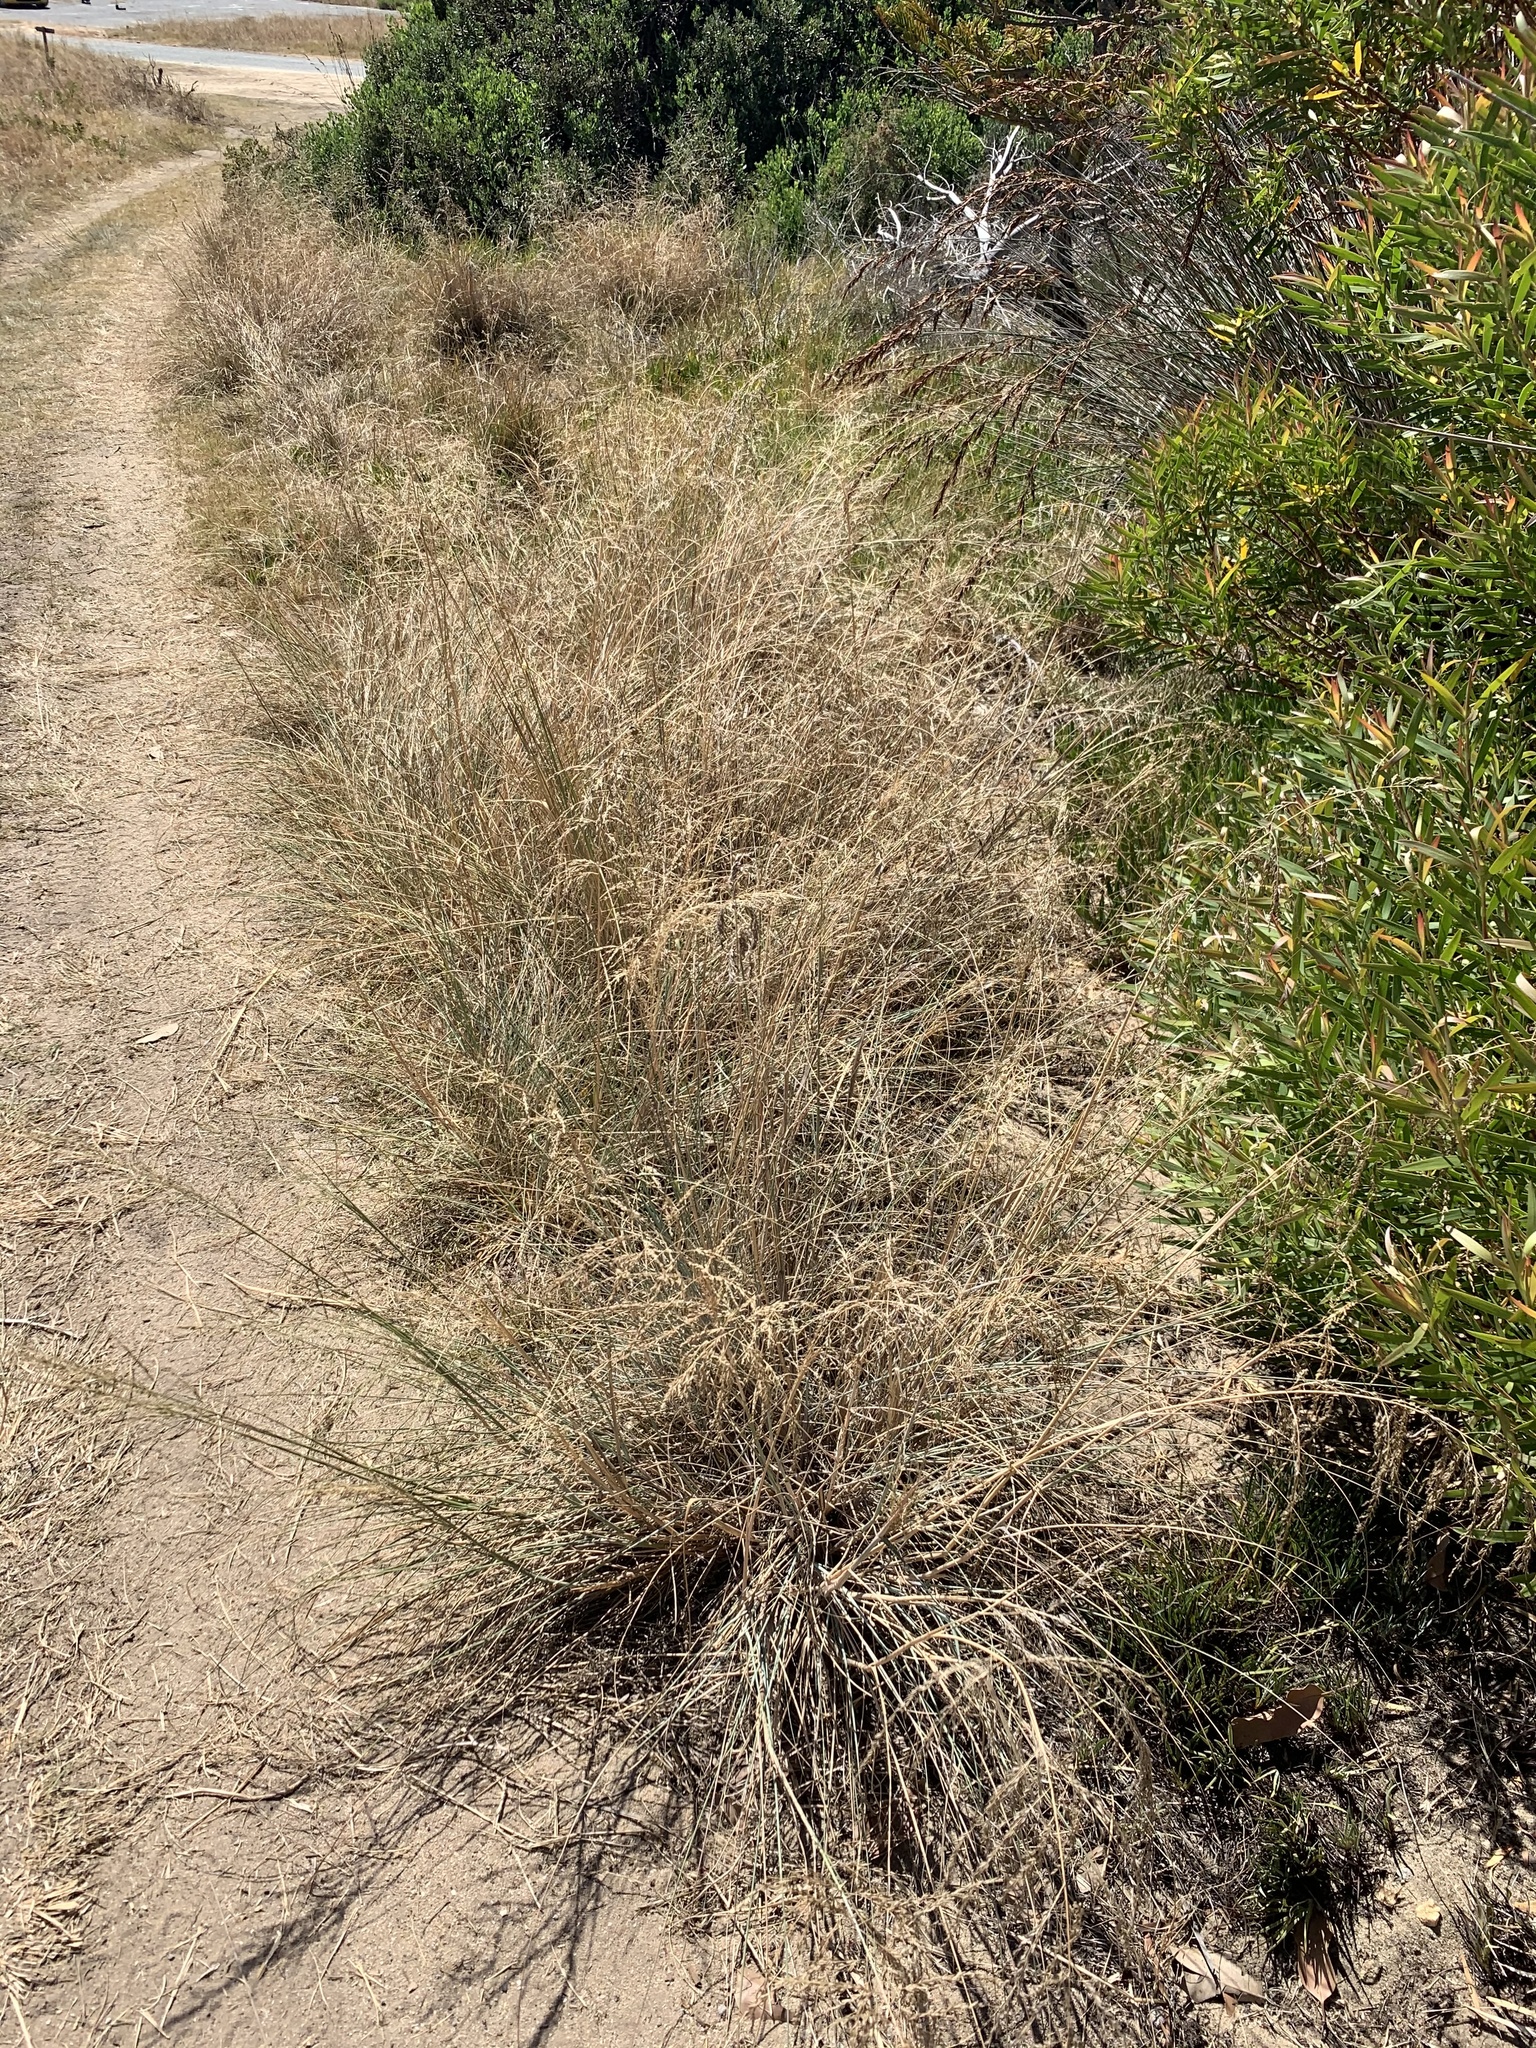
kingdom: Plantae
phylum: Tracheophyta
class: Liliopsida
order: Poales
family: Poaceae
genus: Eragrostis
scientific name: Eragrostis curvula
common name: African love-grass
